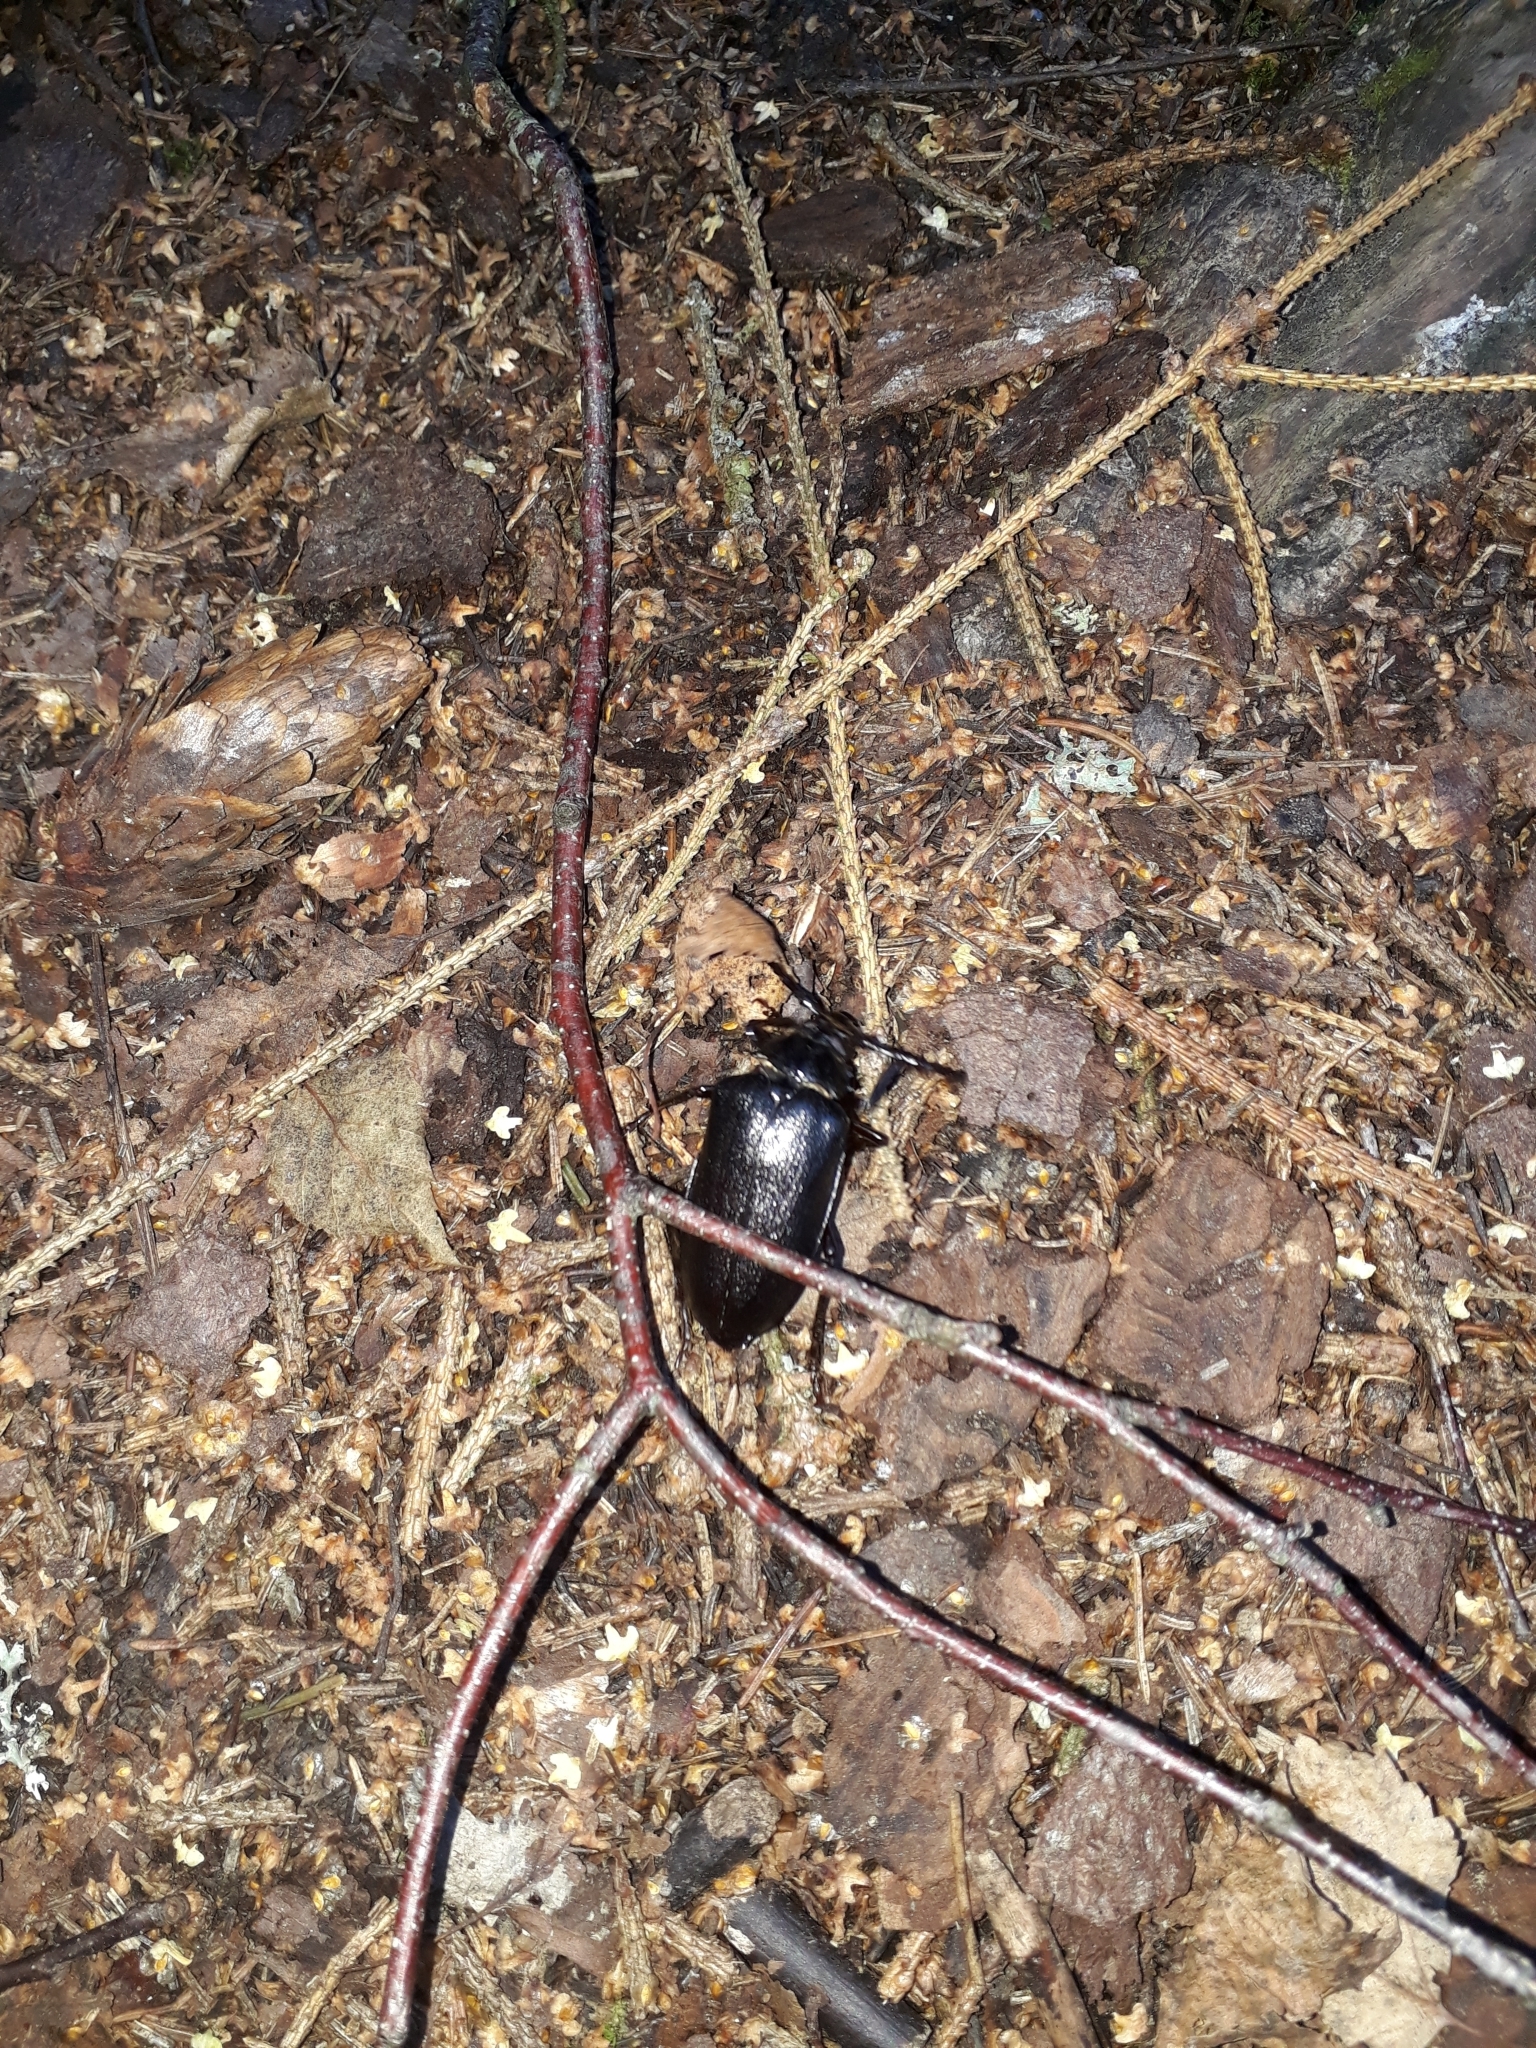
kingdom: Animalia
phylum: Arthropoda
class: Insecta
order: Coleoptera
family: Cerambycidae
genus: Prionus
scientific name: Prionus coriarius
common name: Tanner beetle
